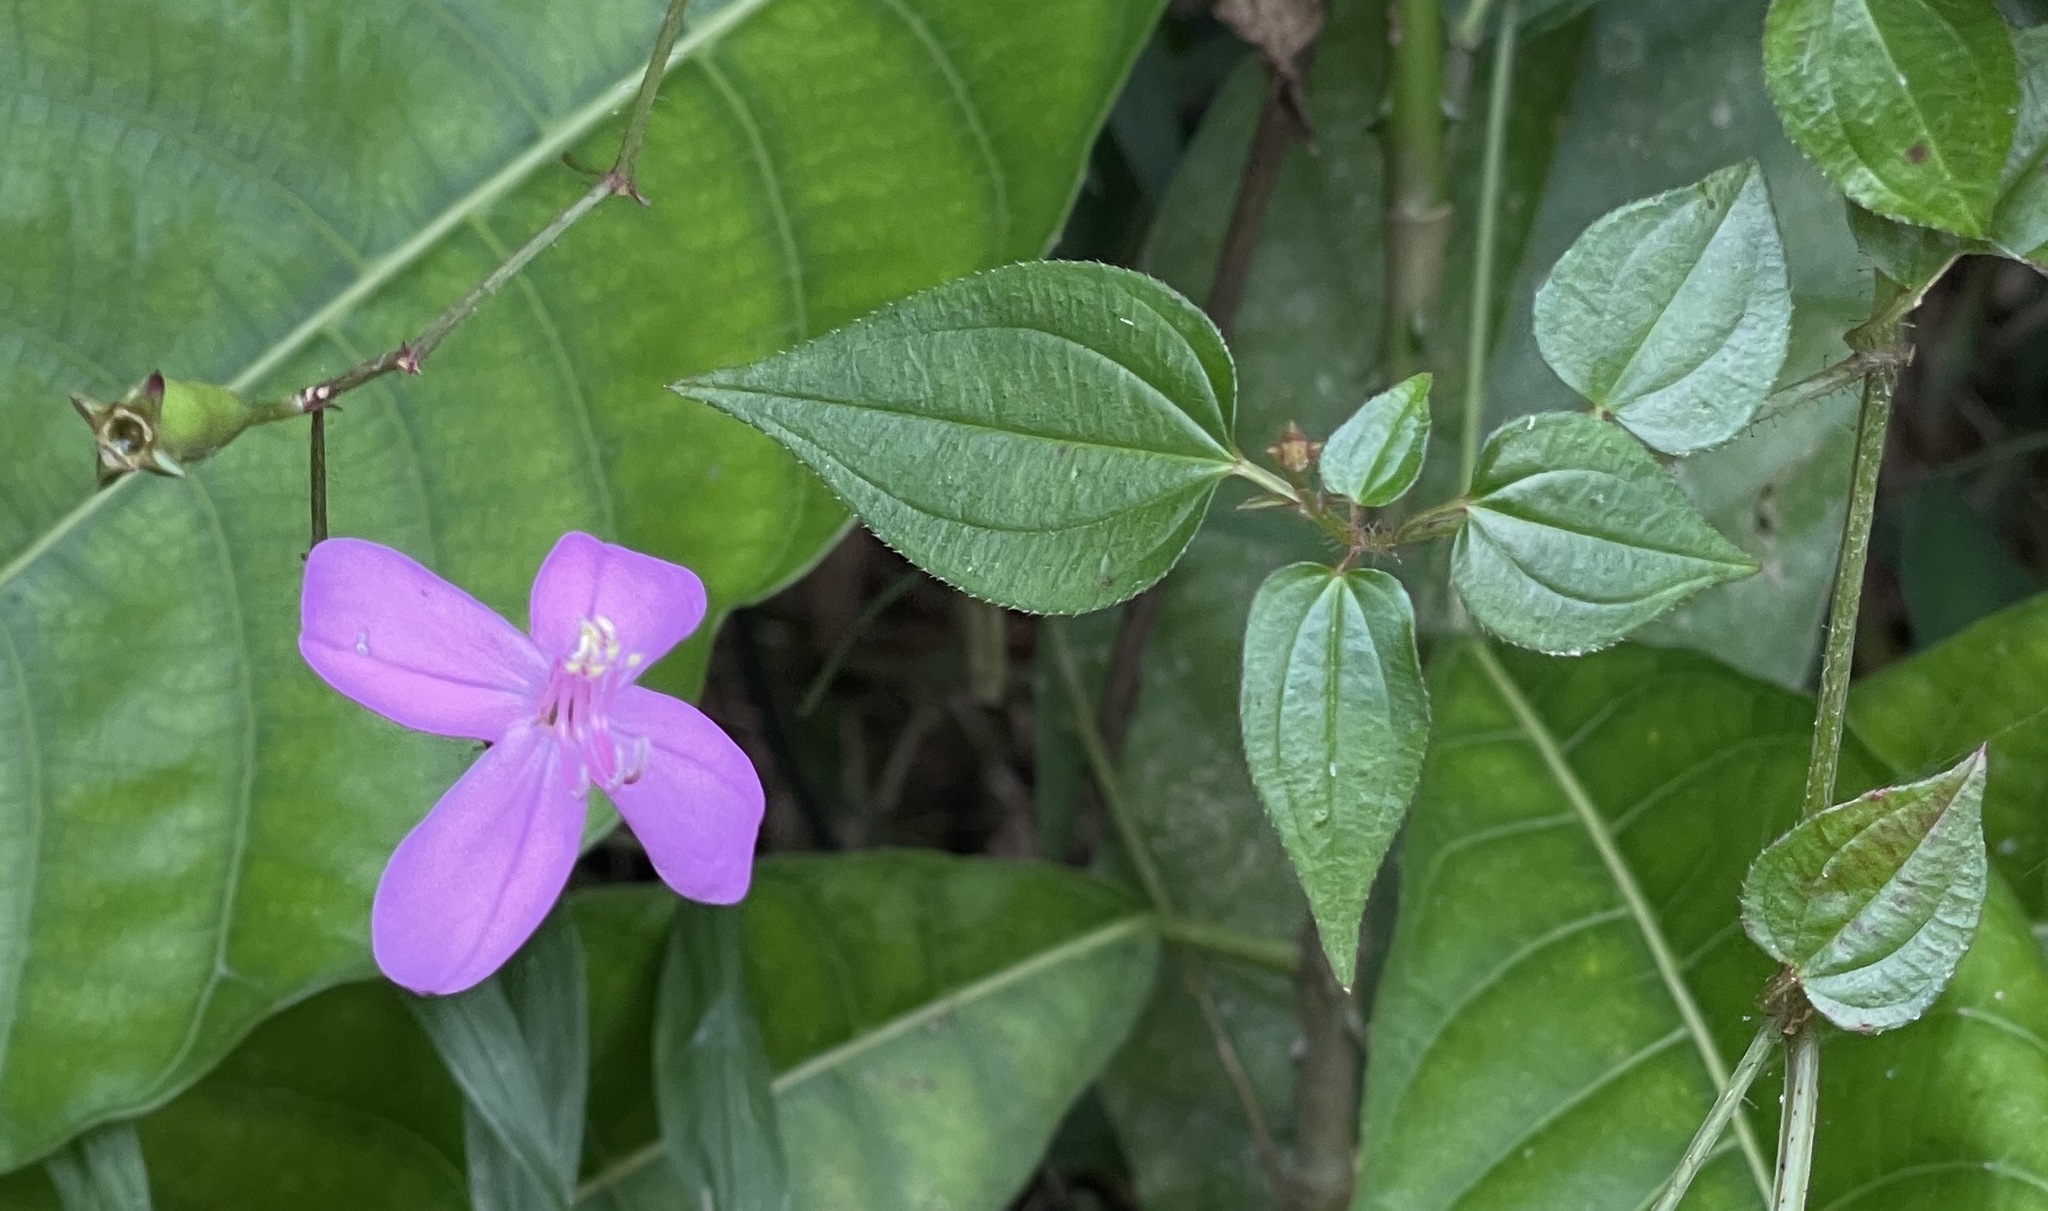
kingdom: Plantae
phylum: Tracheophyta
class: Magnoliopsida
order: Myrtales
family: Melastomataceae
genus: Arthrostemma
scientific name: Arthrostemma ciliatum
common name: Everblooming eavender
